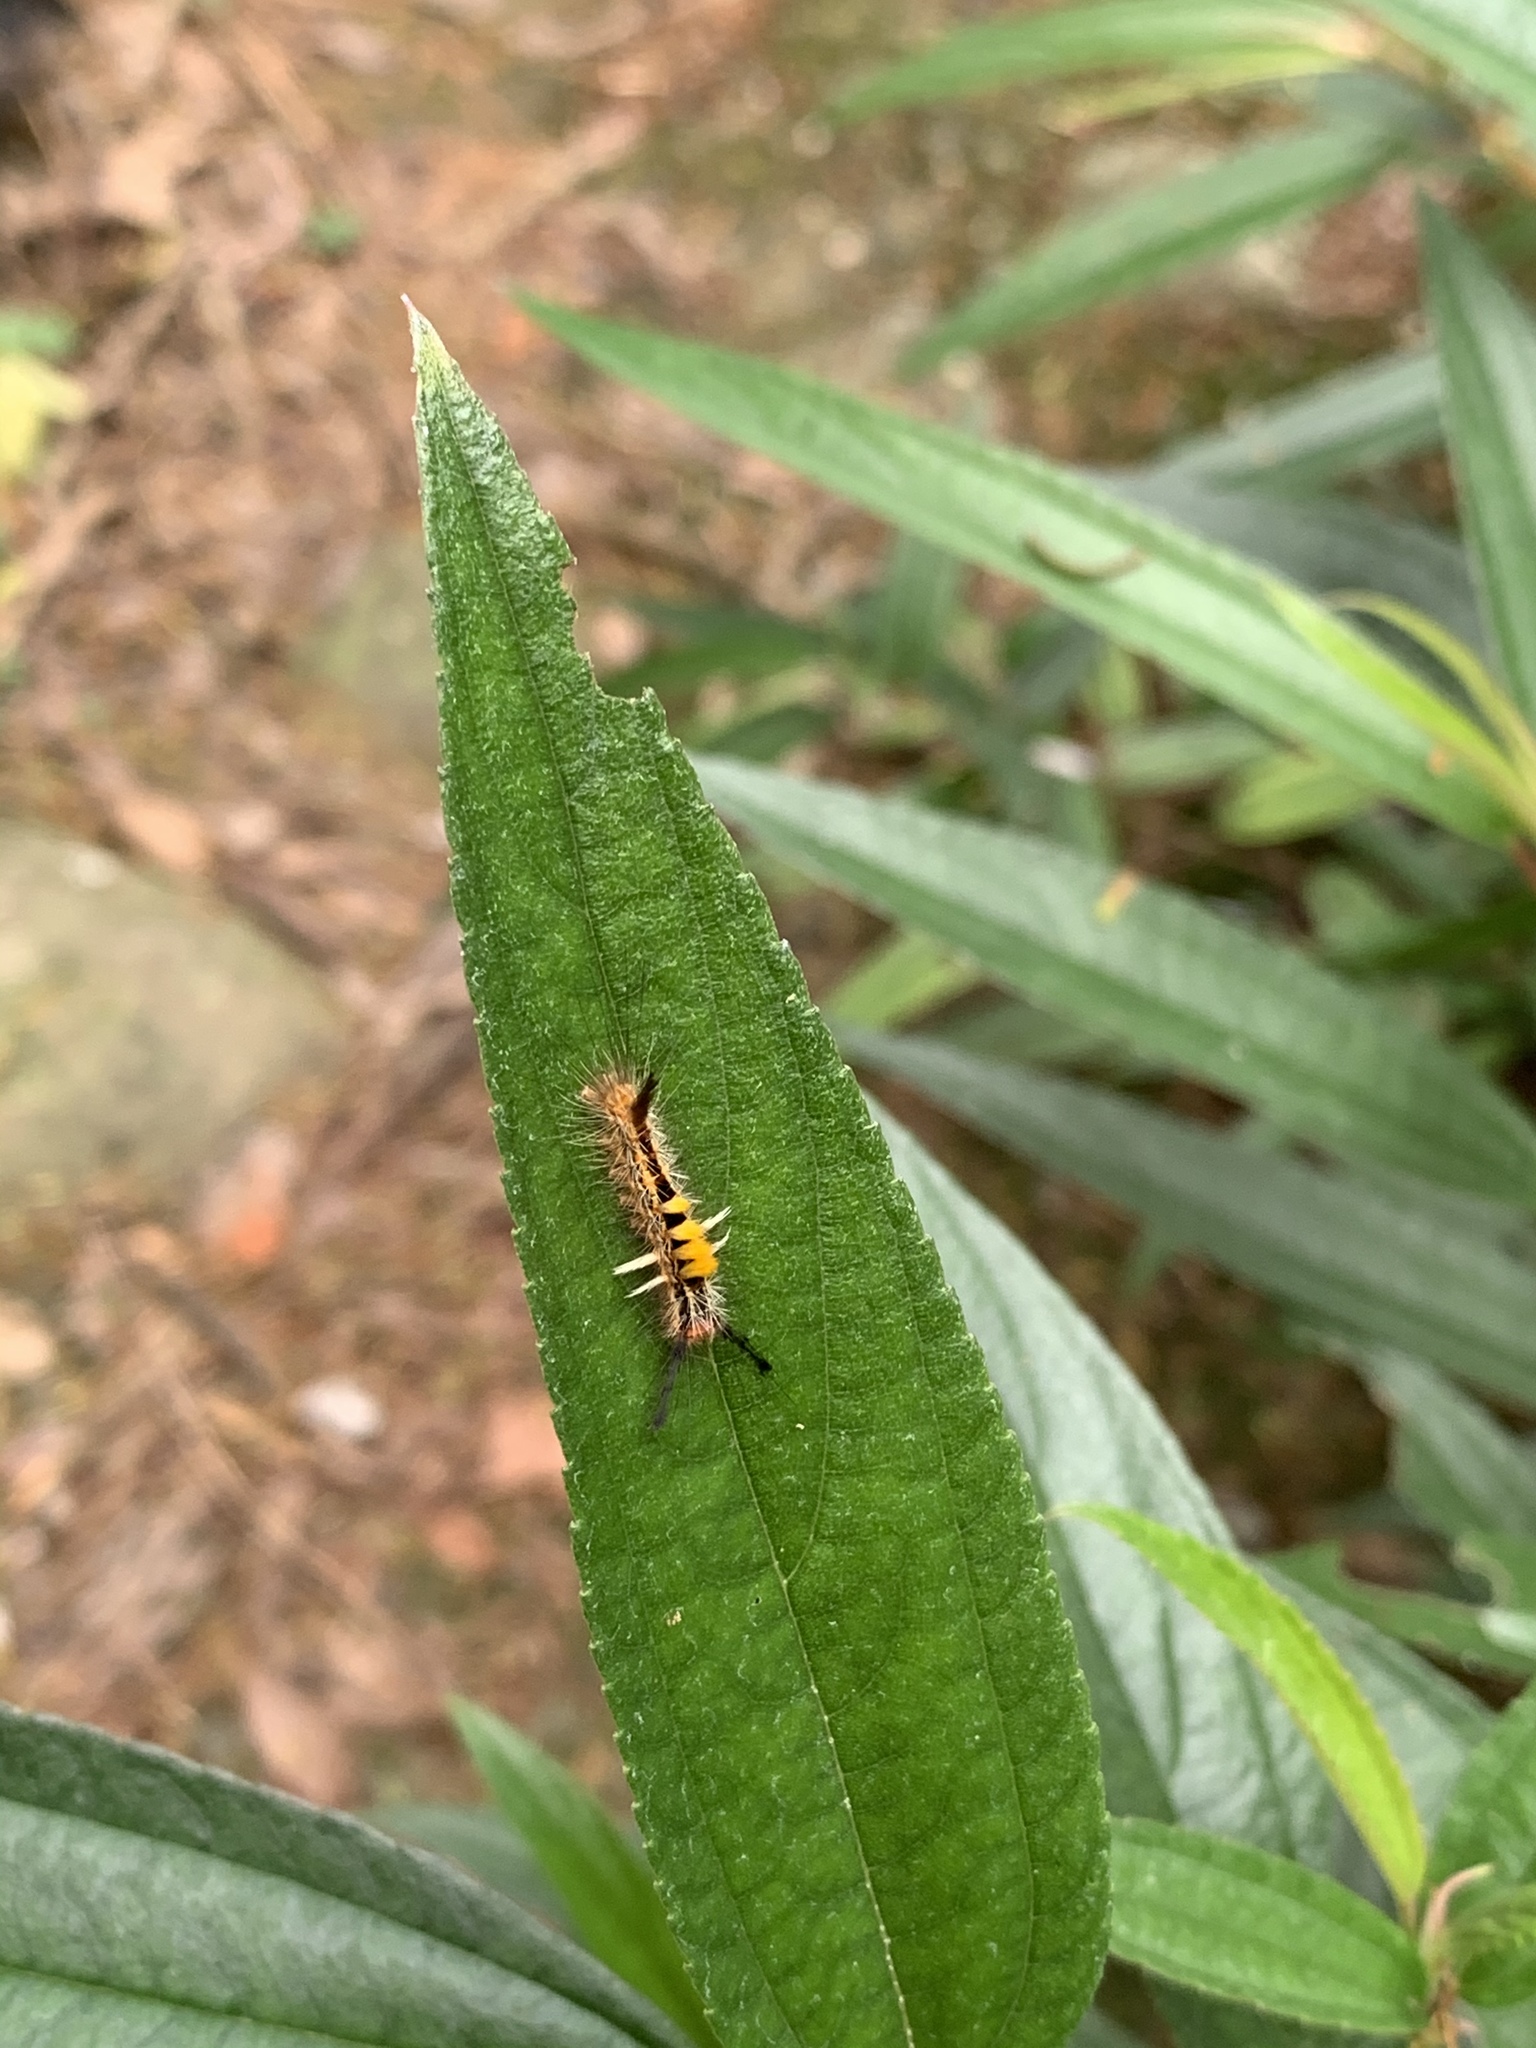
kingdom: Animalia
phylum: Arthropoda
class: Insecta
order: Lepidoptera
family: Erebidae
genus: Orgyia
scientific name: Orgyia postica
